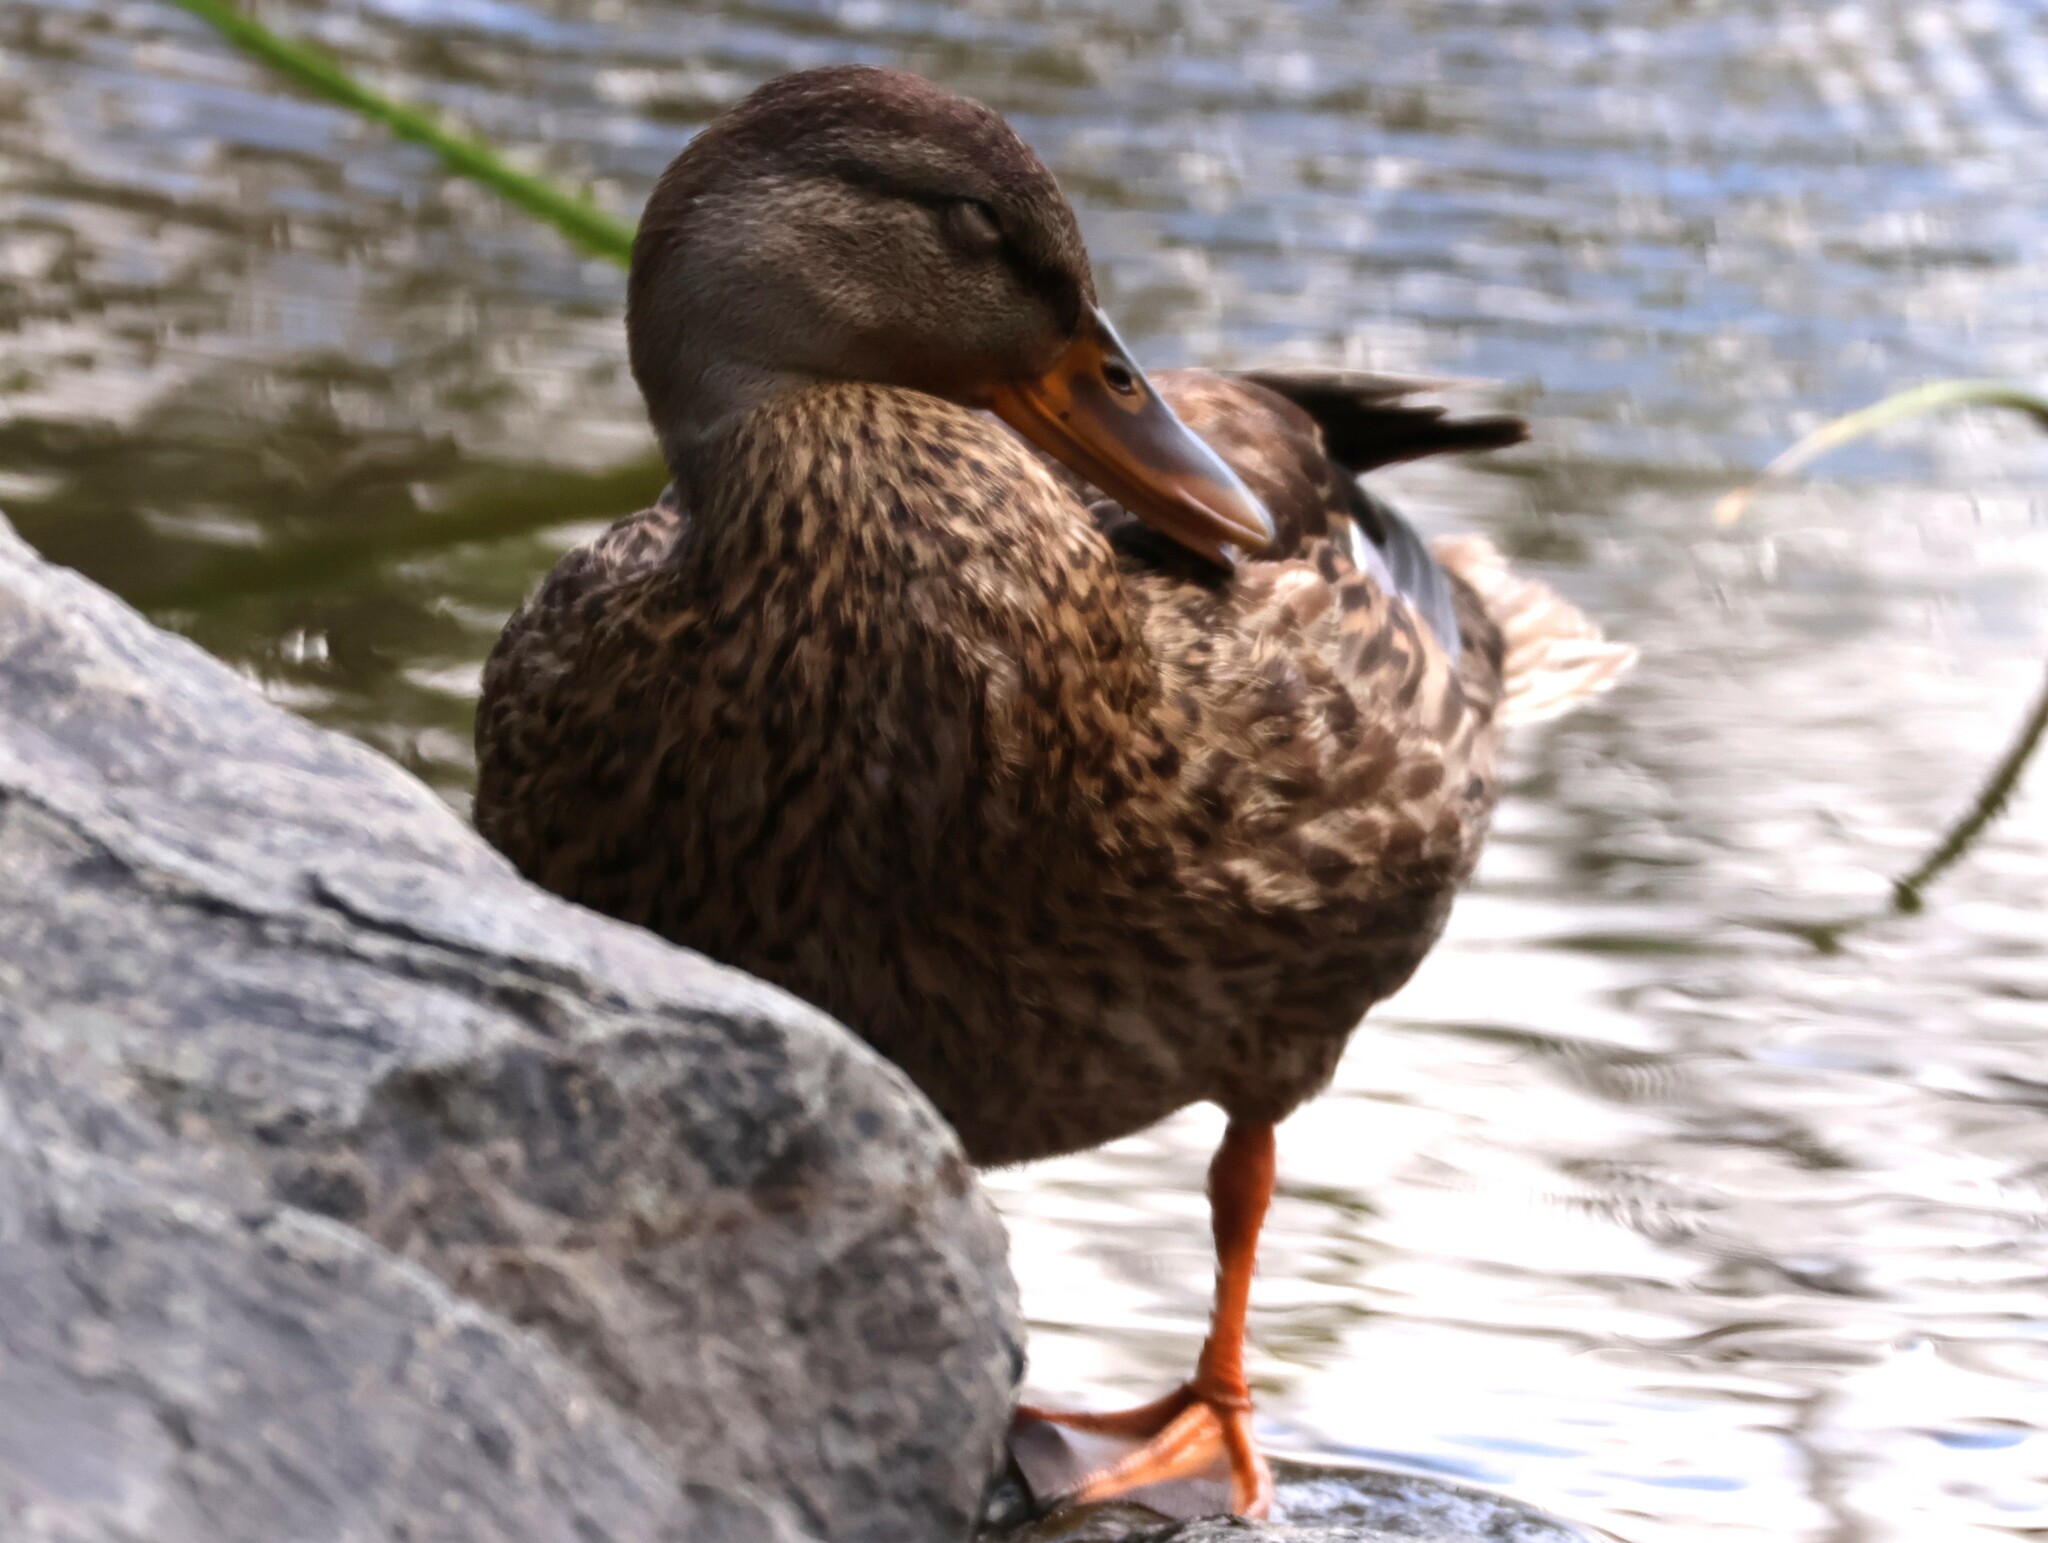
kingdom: Animalia
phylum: Chordata
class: Aves
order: Anseriformes
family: Anatidae
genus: Anas
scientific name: Anas platyrhynchos
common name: Mallard
